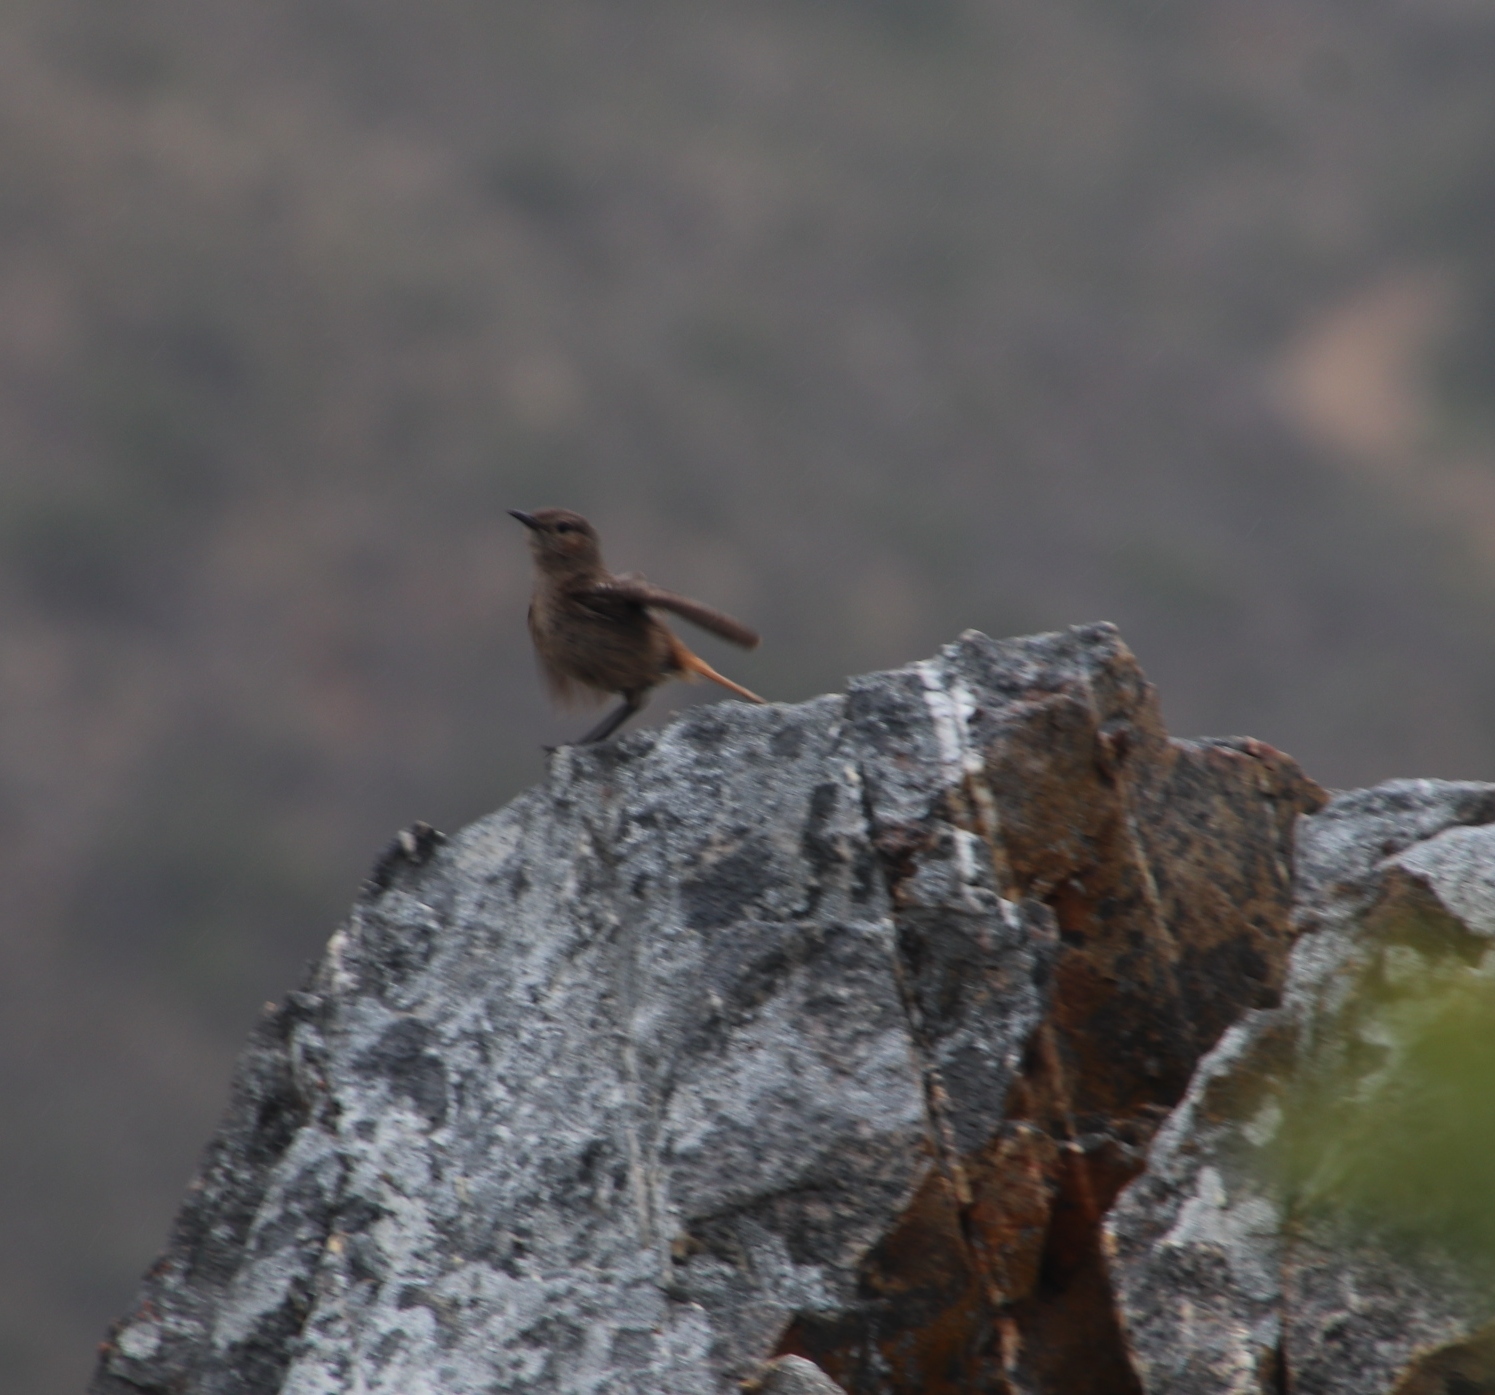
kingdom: Animalia
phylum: Chordata
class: Aves
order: Passeriformes
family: Muscicapidae
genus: Oenanthe
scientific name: Oenanthe familiaris
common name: Familiar chat
